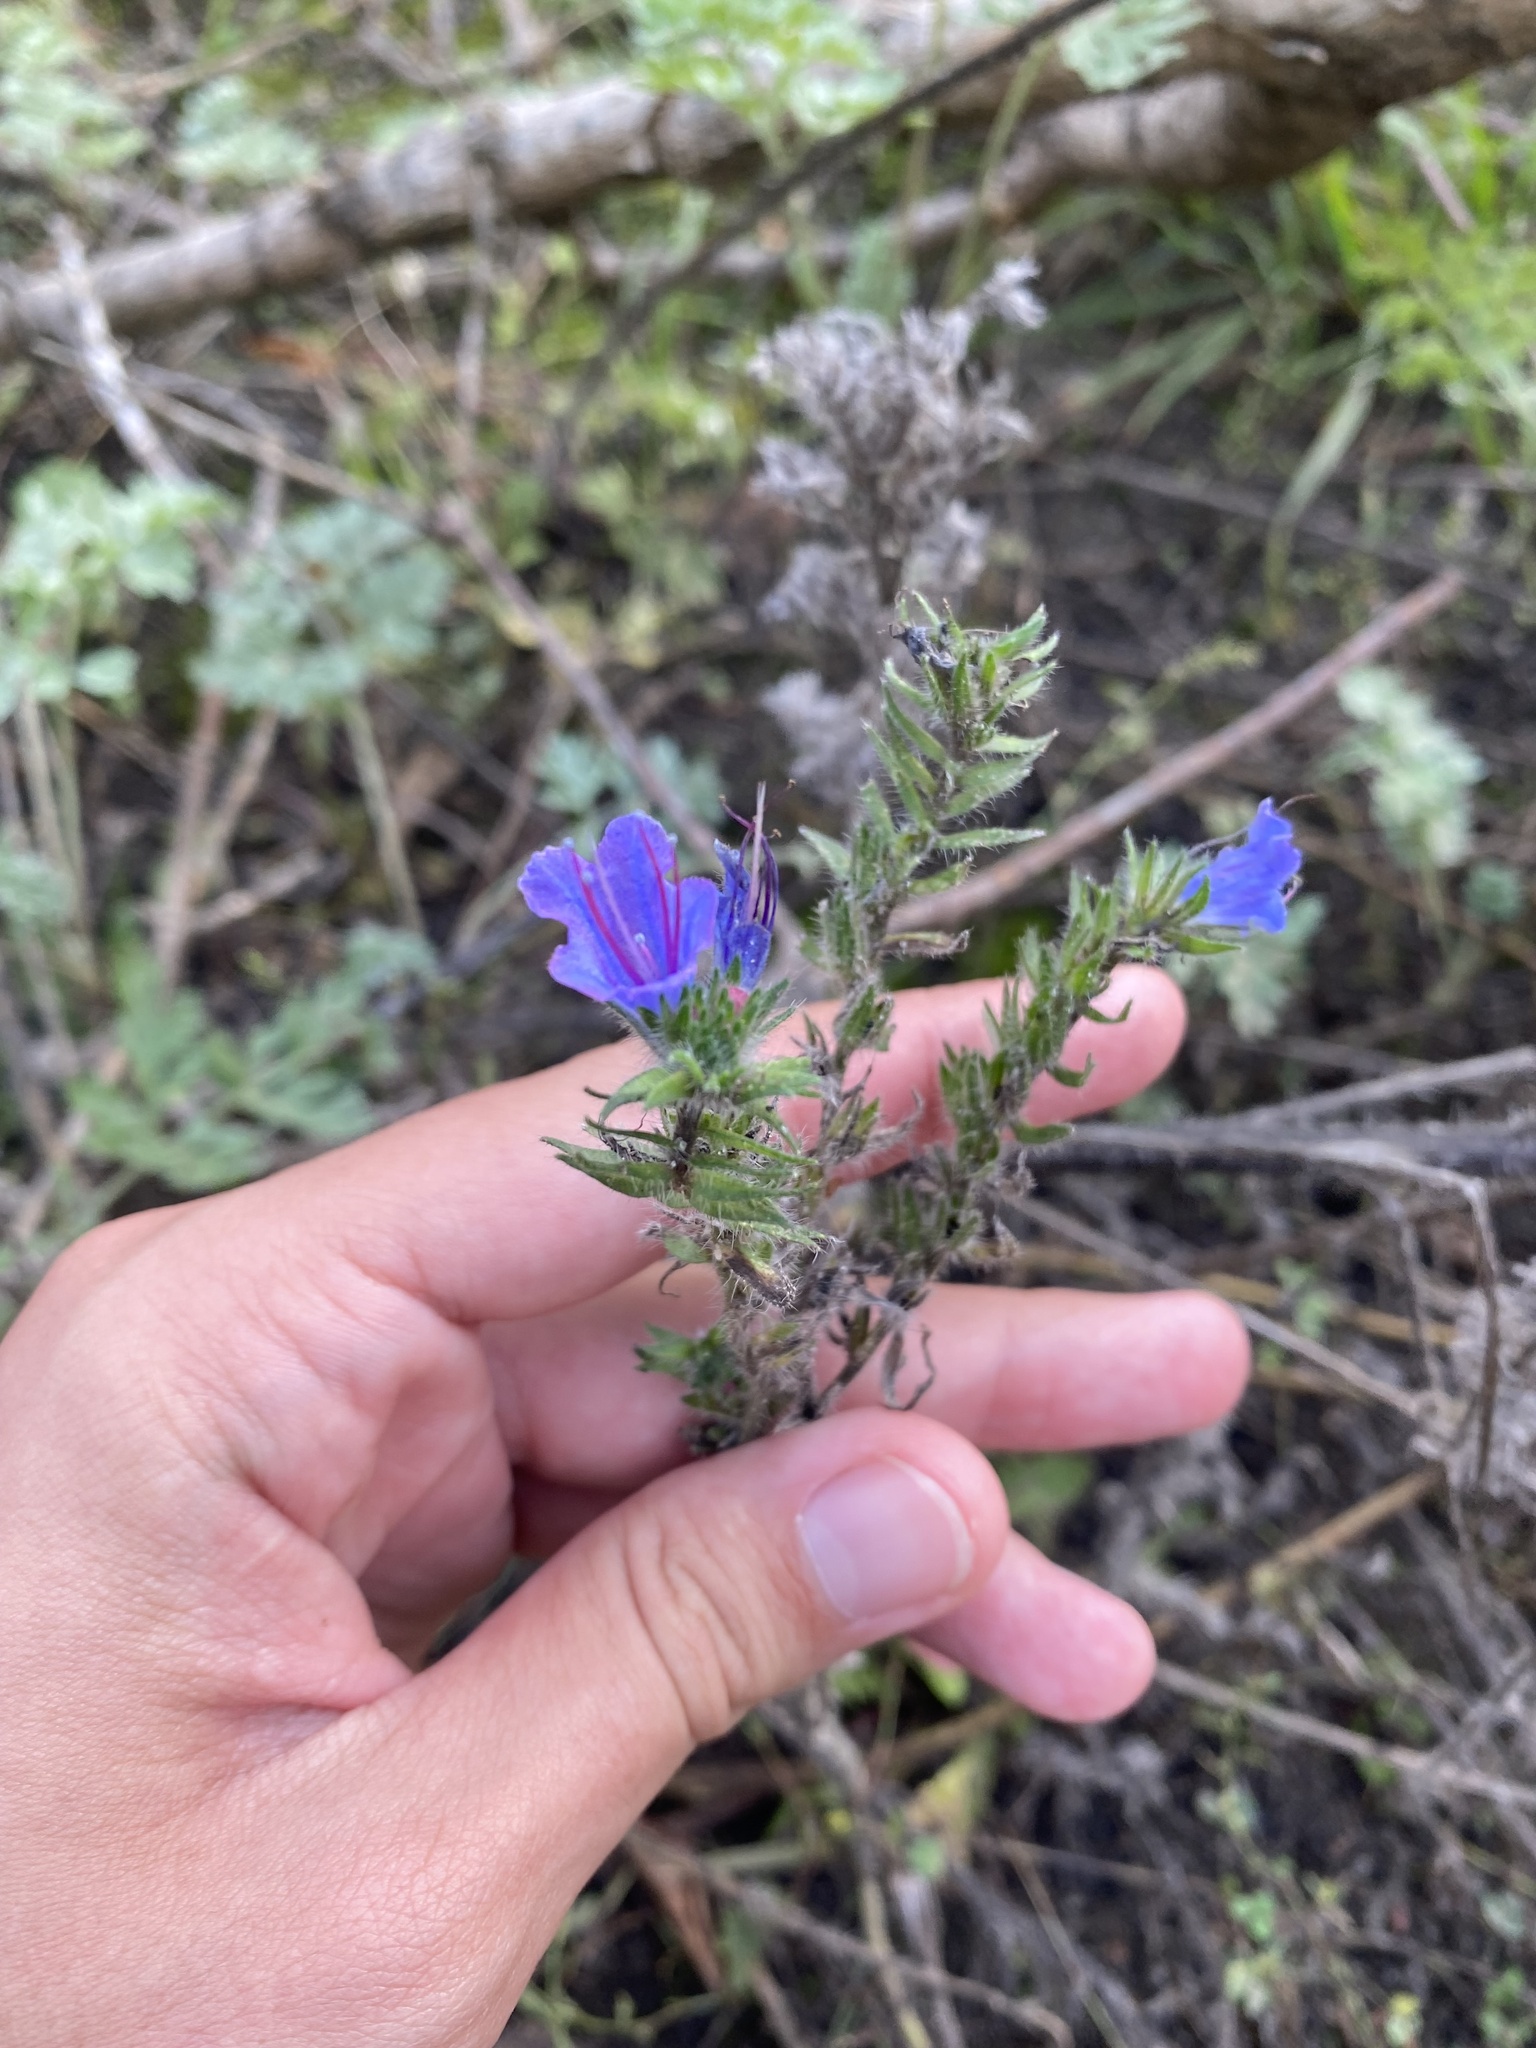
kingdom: Plantae
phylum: Tracheophyta
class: Magnoliopsida
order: Boraginales
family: Boraginaceae
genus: Echium
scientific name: Echium vulgare
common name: Common viper's bugloss
